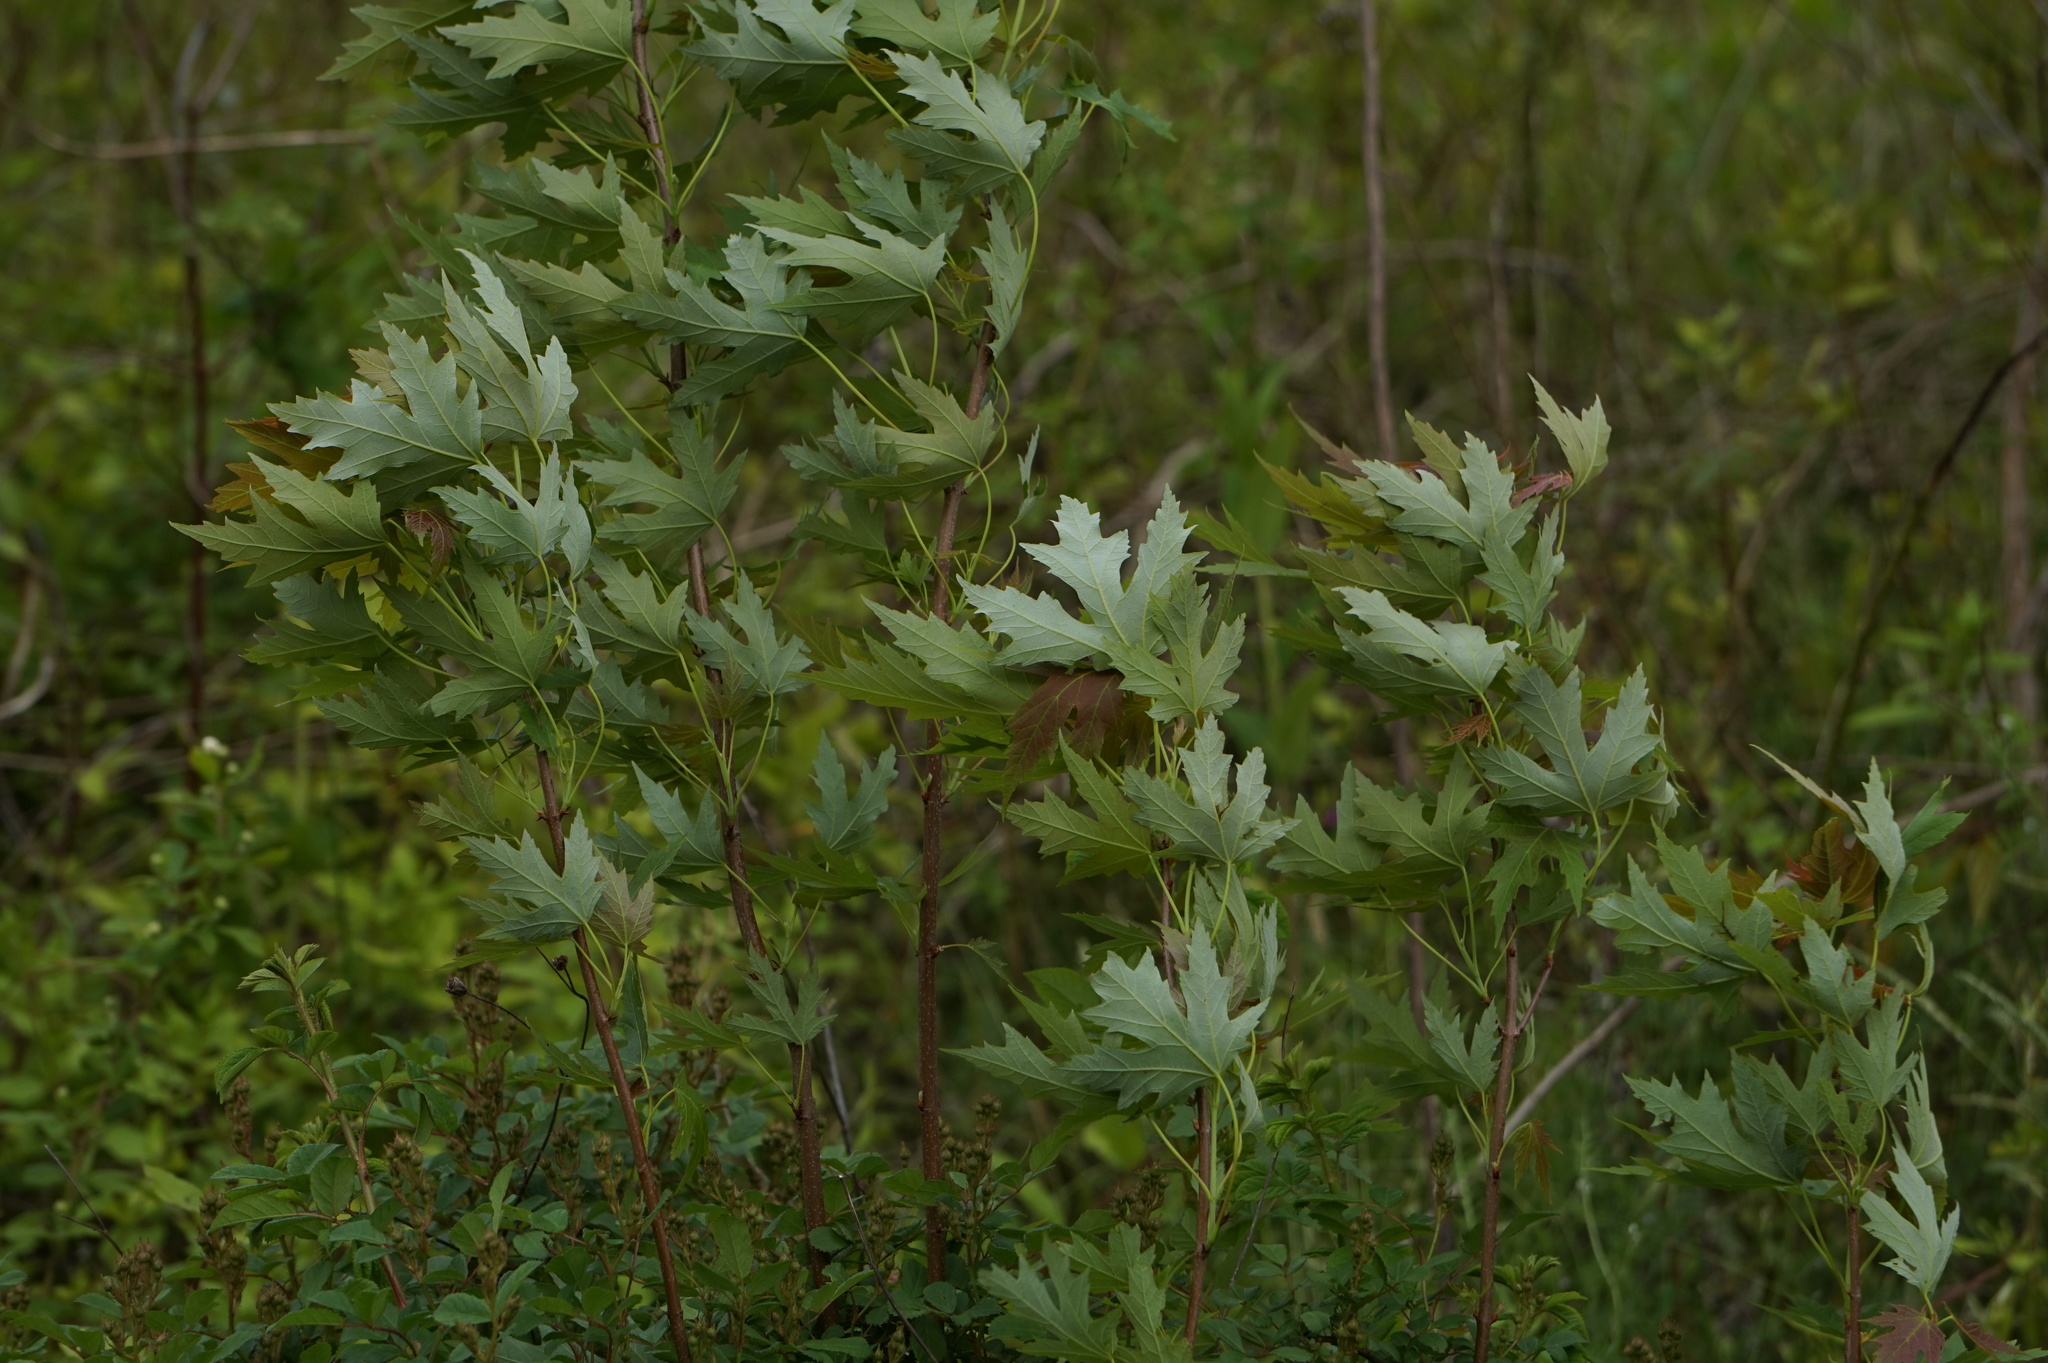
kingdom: Plantae
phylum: Tracheophyta
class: Magnoliopsida
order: Sapindales
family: Sapindaceae
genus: Acer
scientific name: Acer saccharinum
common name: Silver maple
